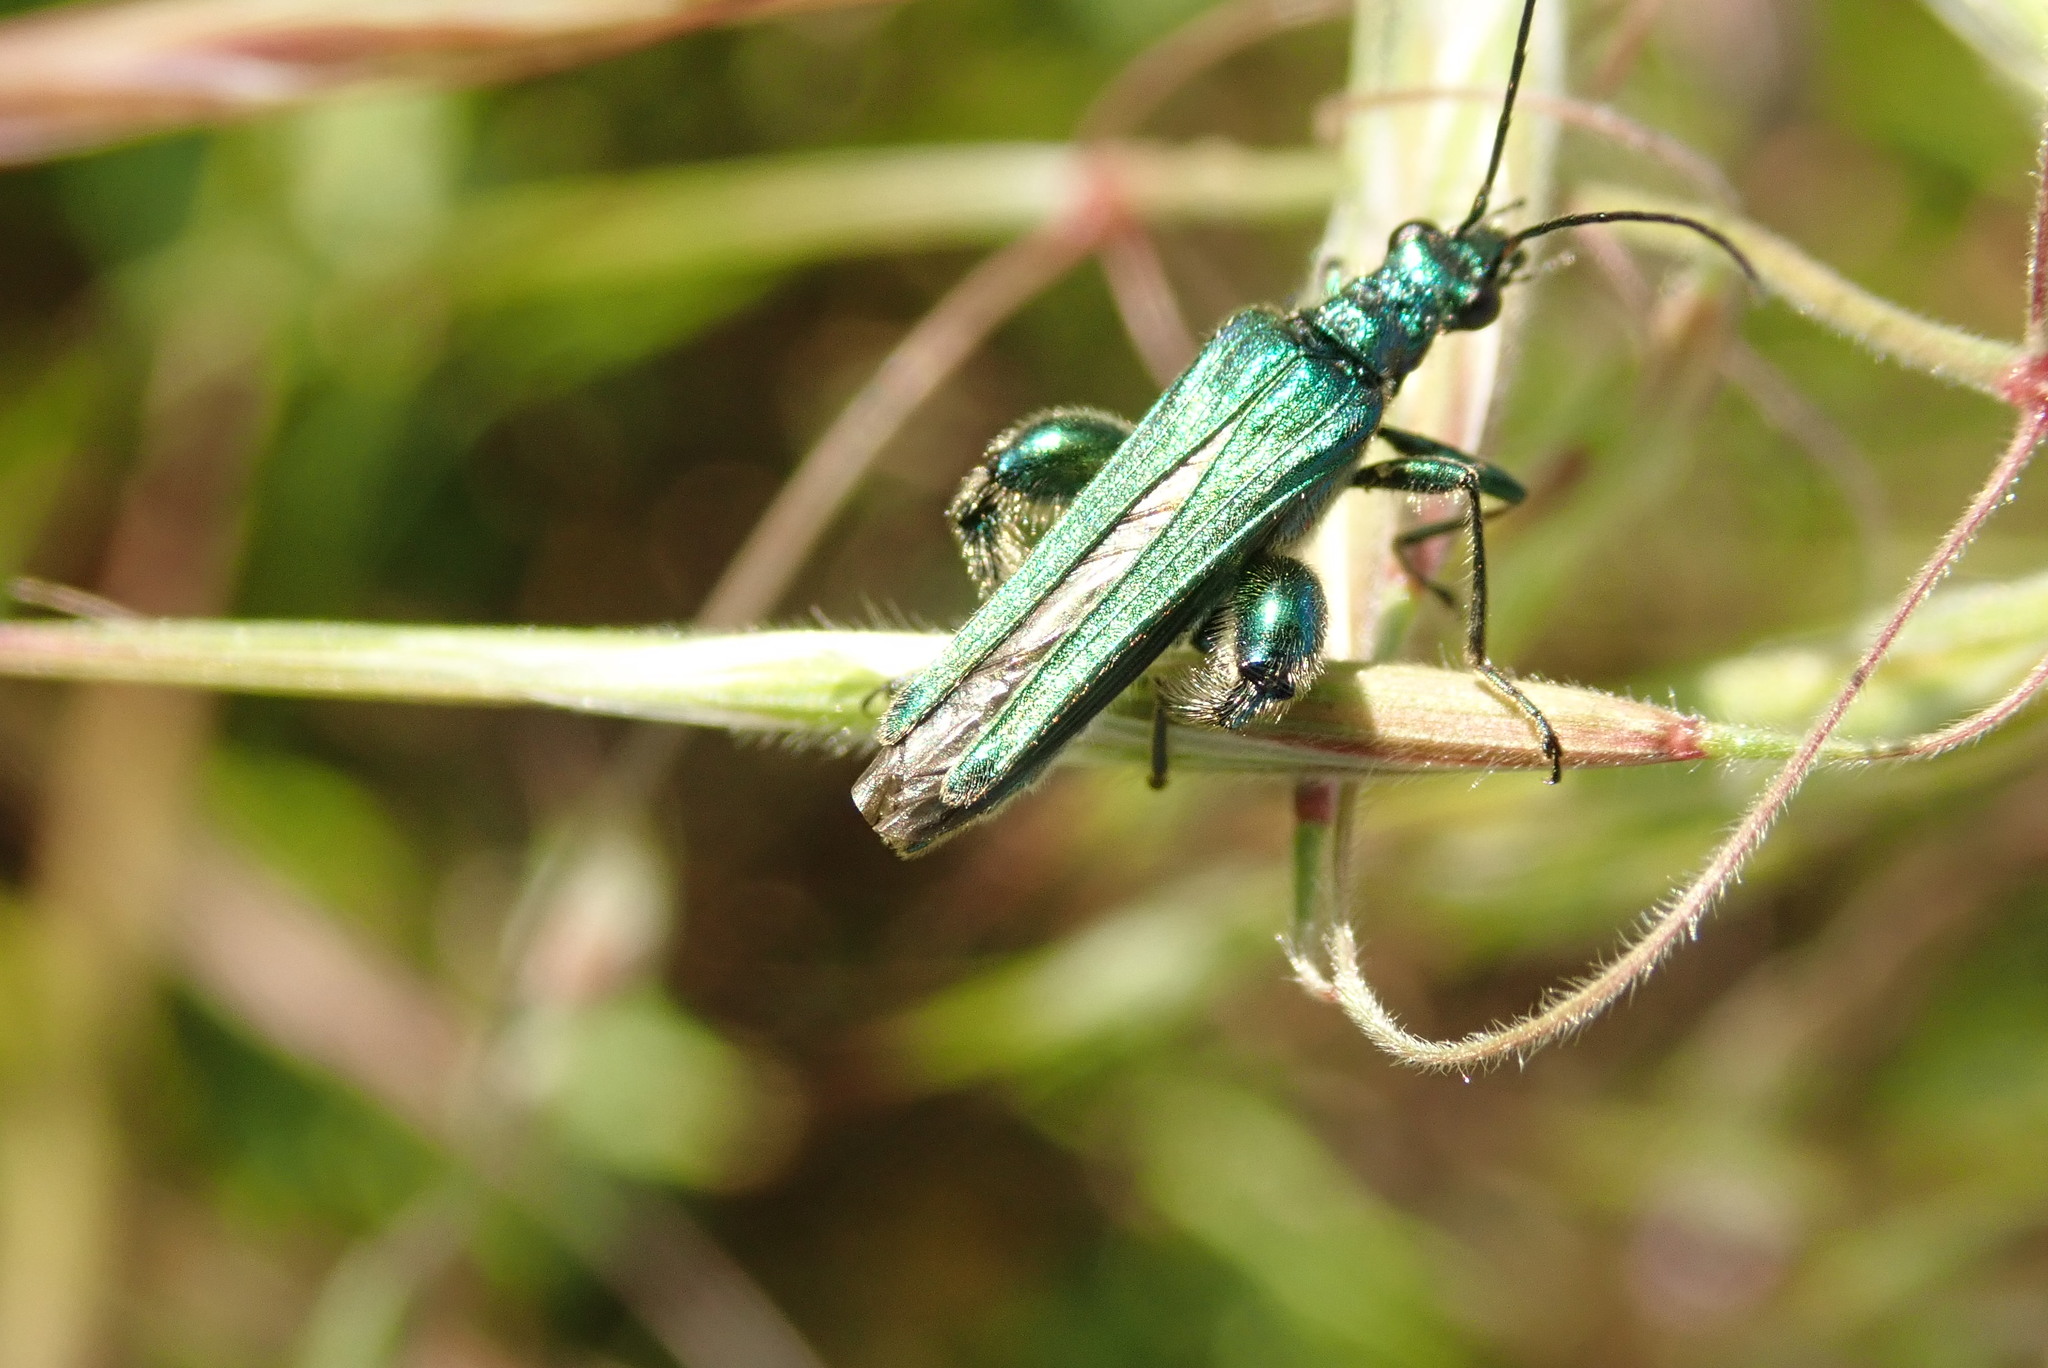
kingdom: Animalia
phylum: Arthropoda
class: Insecta
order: Coleoptera
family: Oedemeridae
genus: Oedemera
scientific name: Oedemera nobilis
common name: Swollen-thighed beetle
